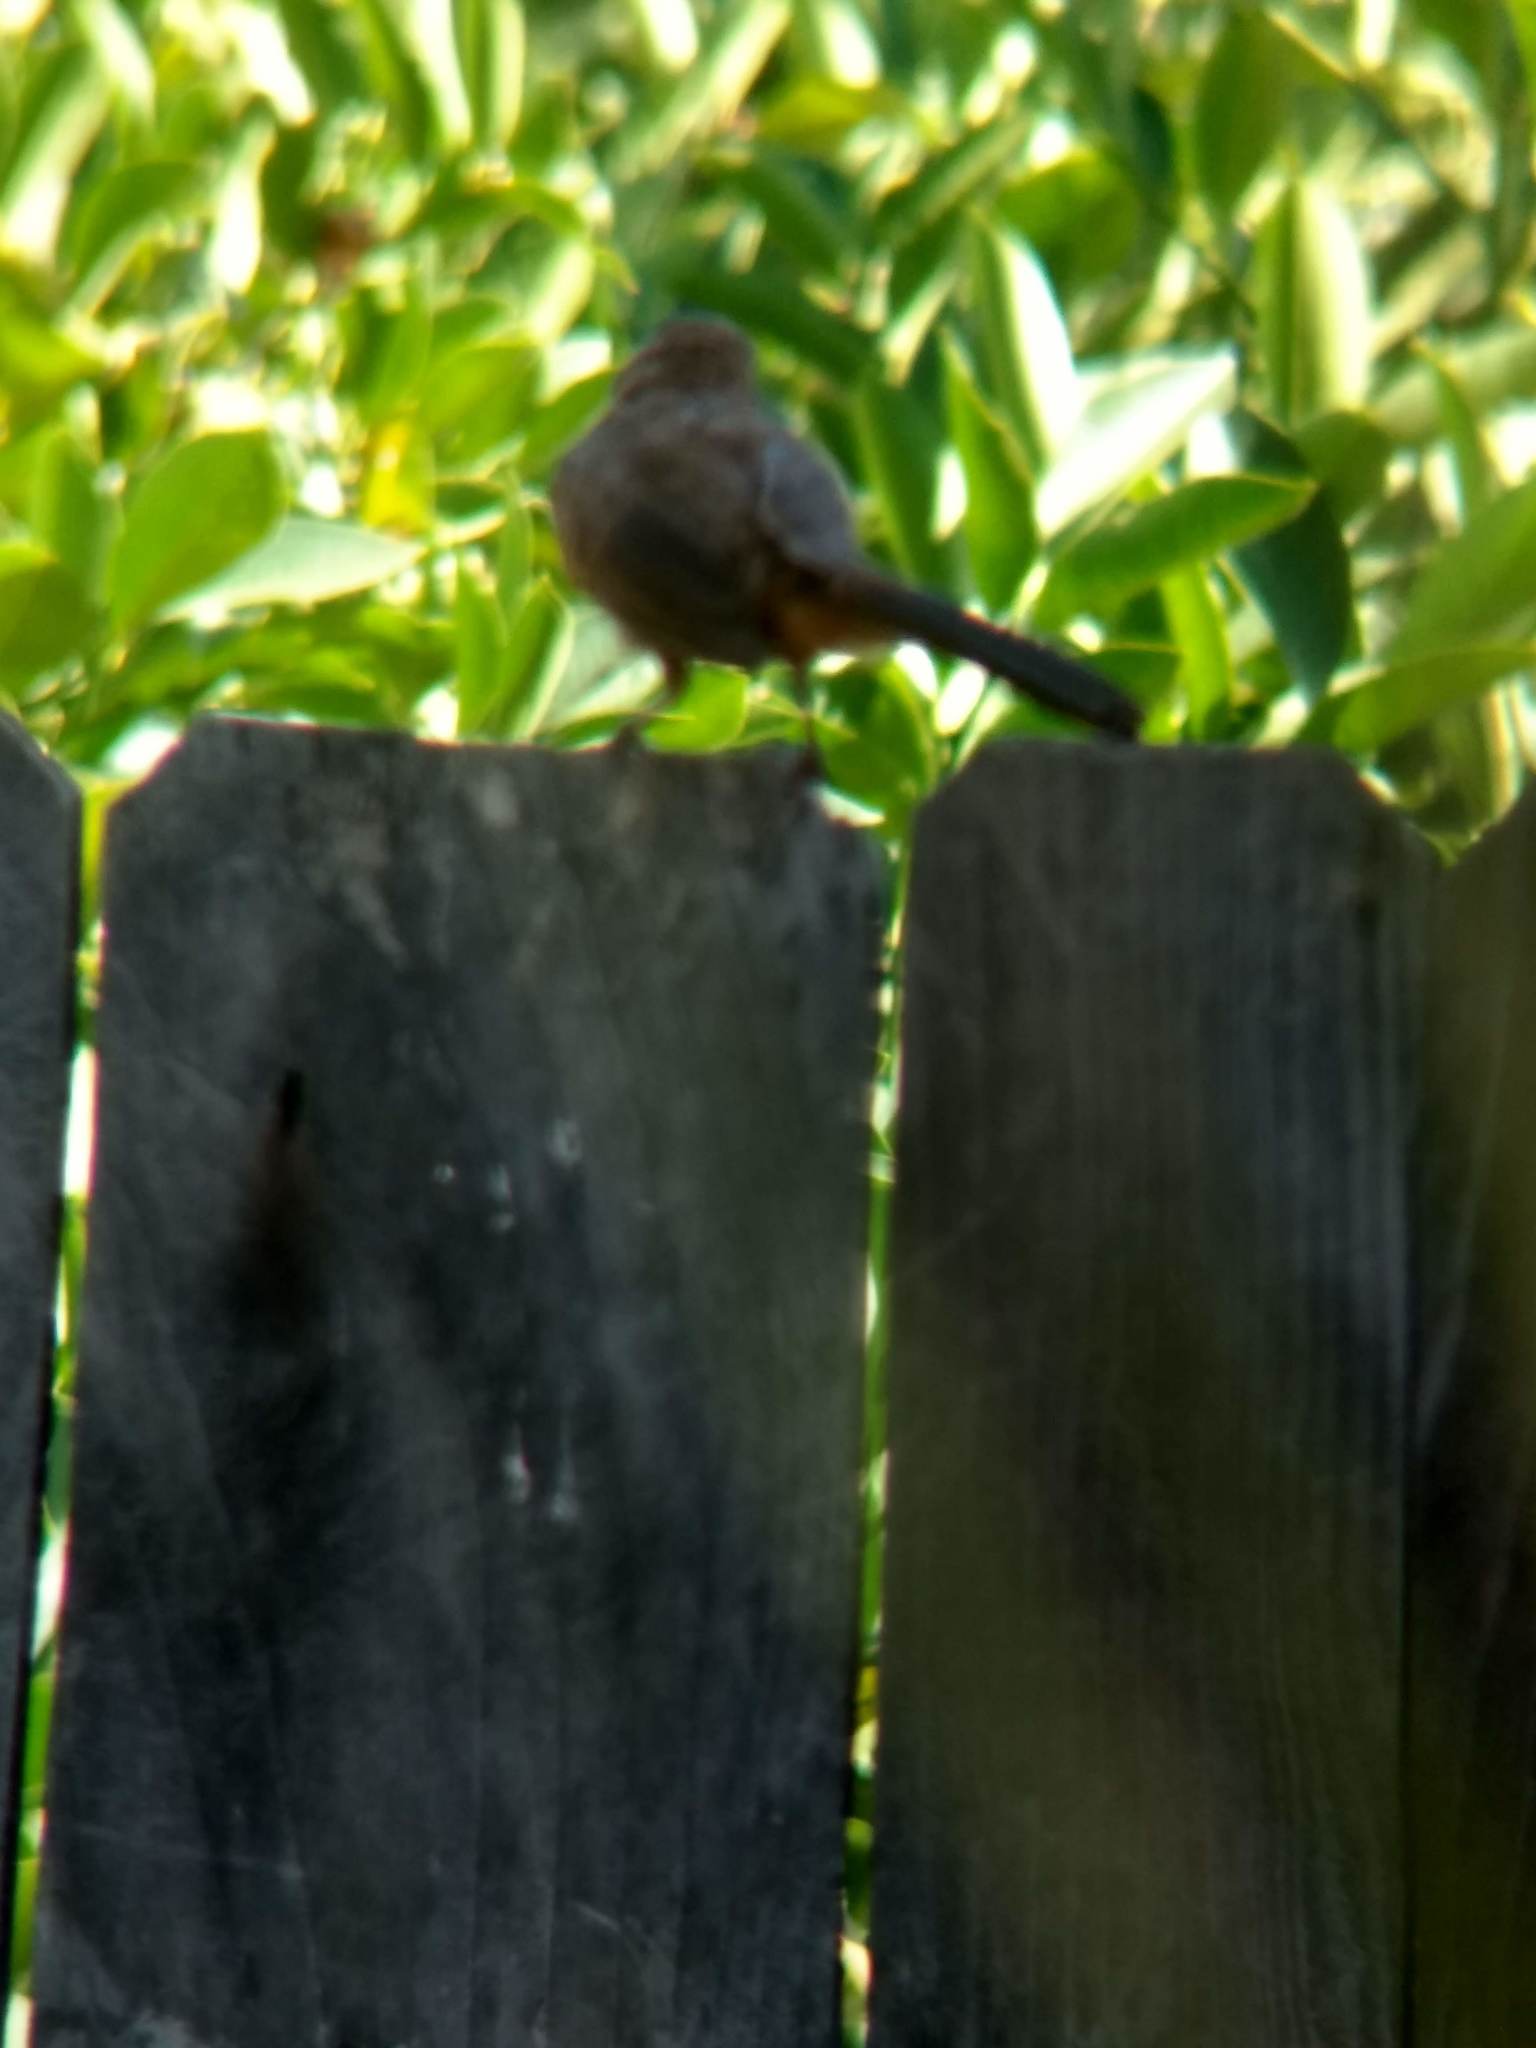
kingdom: Animalia
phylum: Chordata
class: Aves
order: Passeriformes
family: Passerellidae
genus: Melozone
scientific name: Melozone crissalis
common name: California towhee
